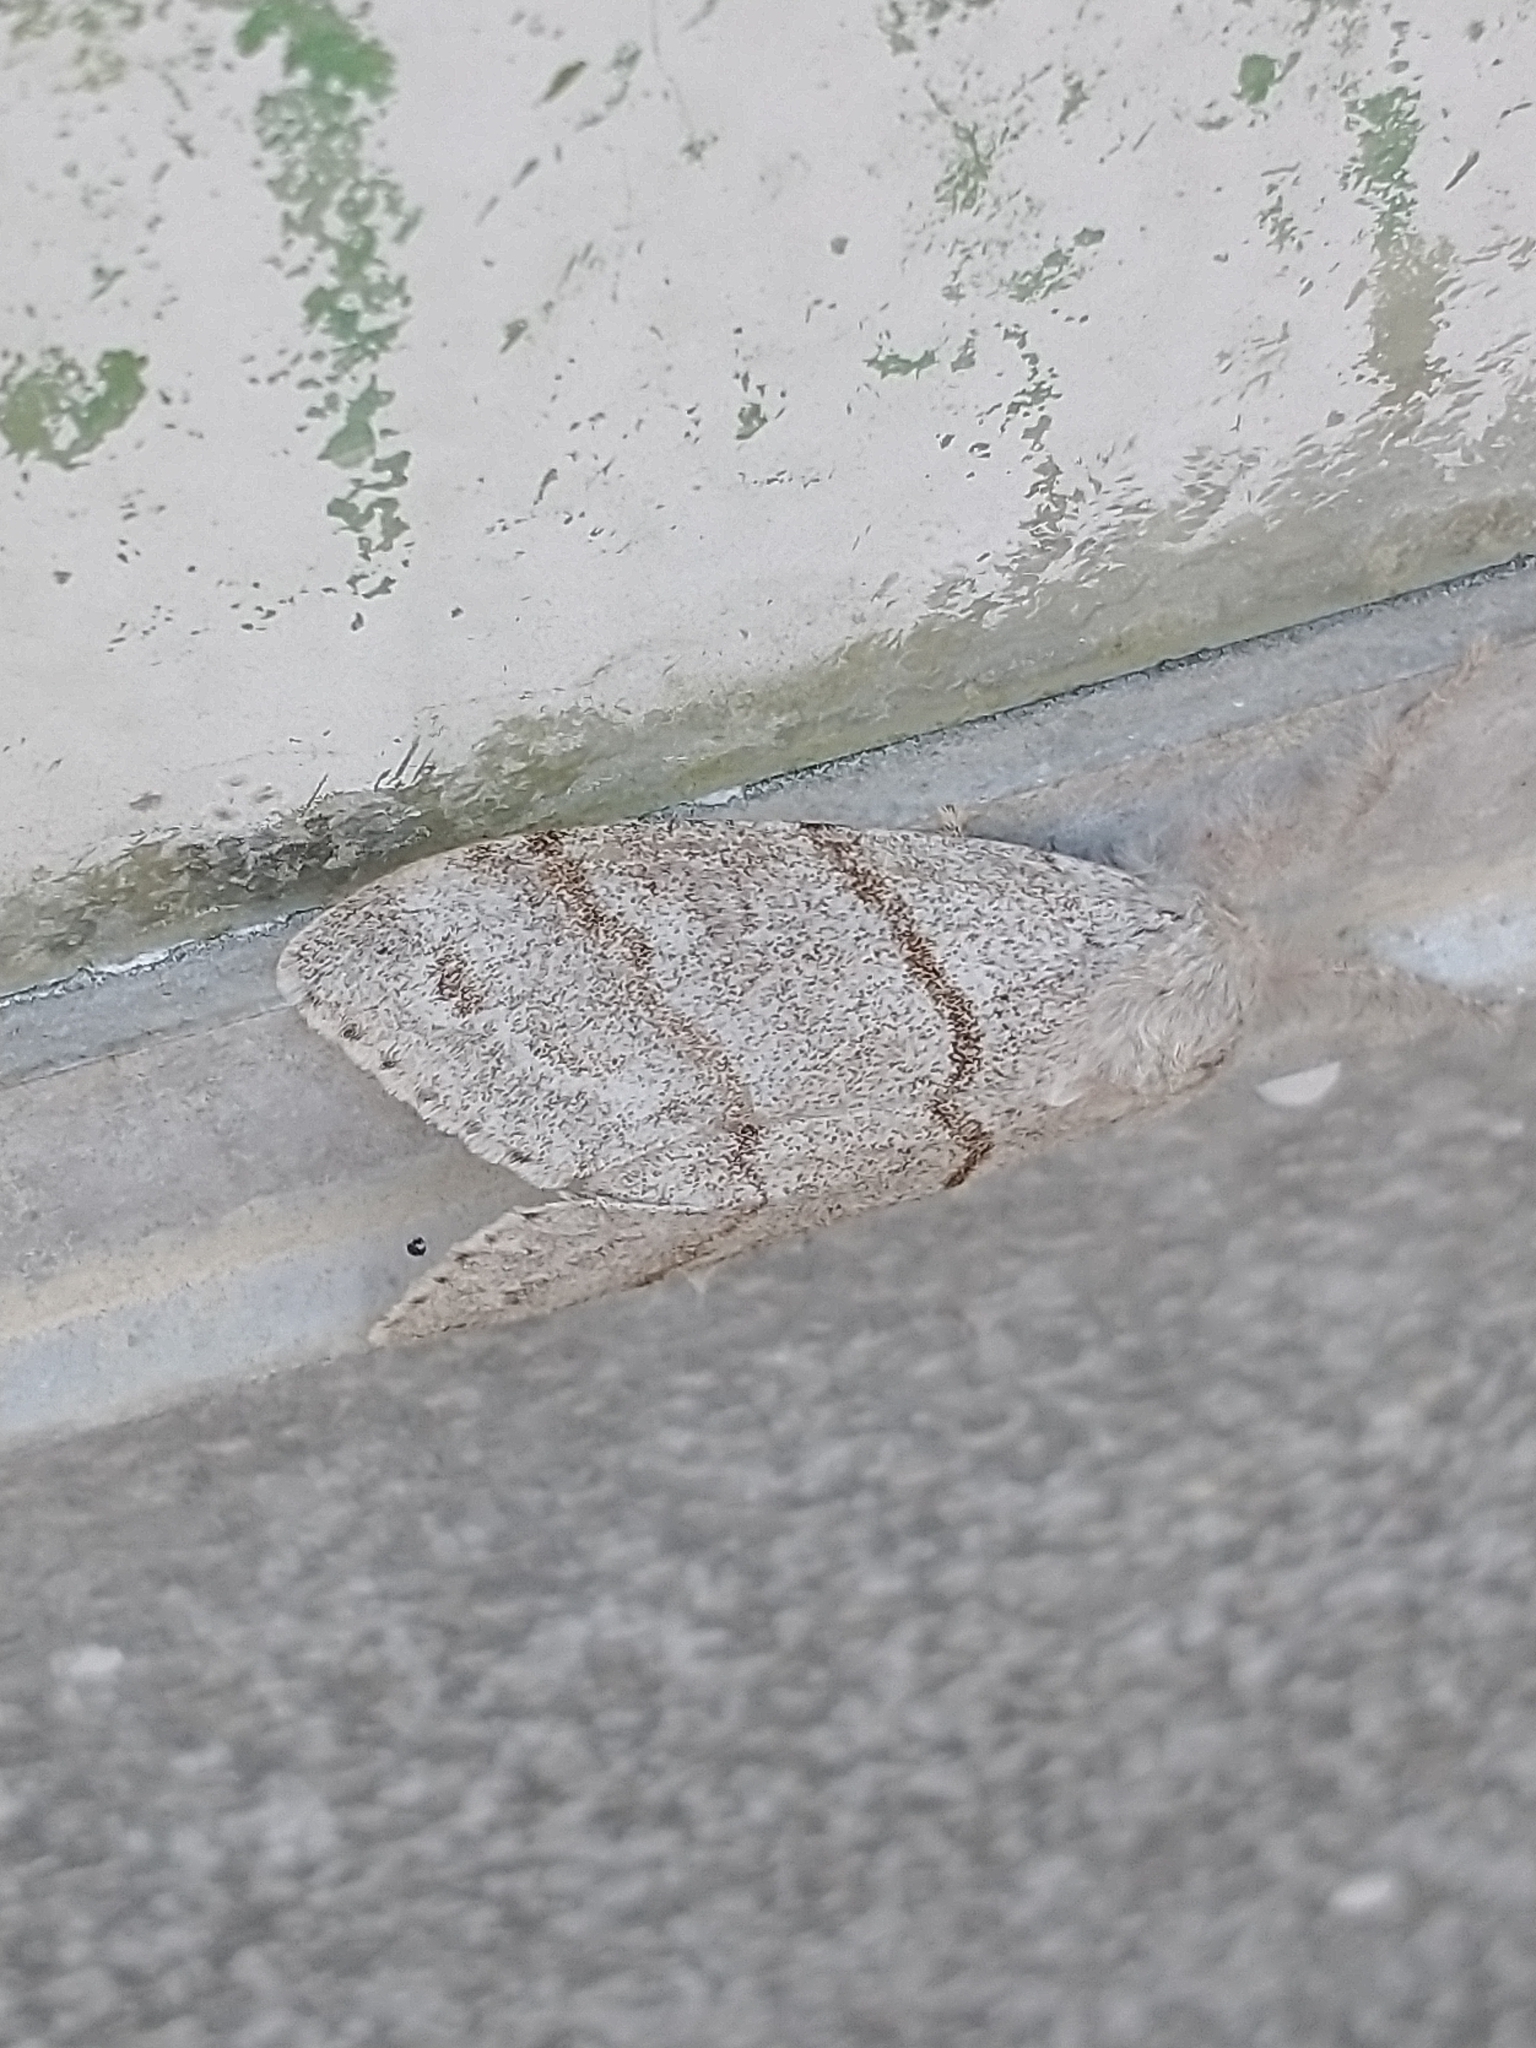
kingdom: Animalia
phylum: Arthropoda
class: Insecta
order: Lepidoptera
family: Erebidae
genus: Calliteara
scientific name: Calliteara pudibunda
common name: Pale tussock
